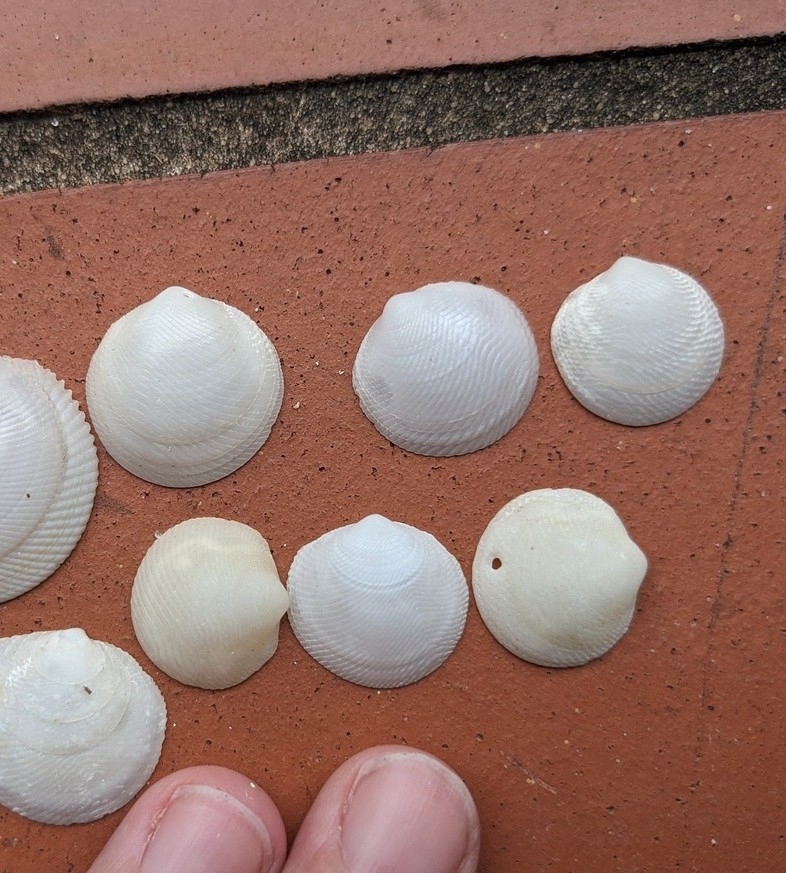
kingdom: Animalia
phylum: Mollusca
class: Bivalvia
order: Lucinida
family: Lucinidae
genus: Divalinga
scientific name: Divalinga quadrisulcata
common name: Cross-hatched lucine
